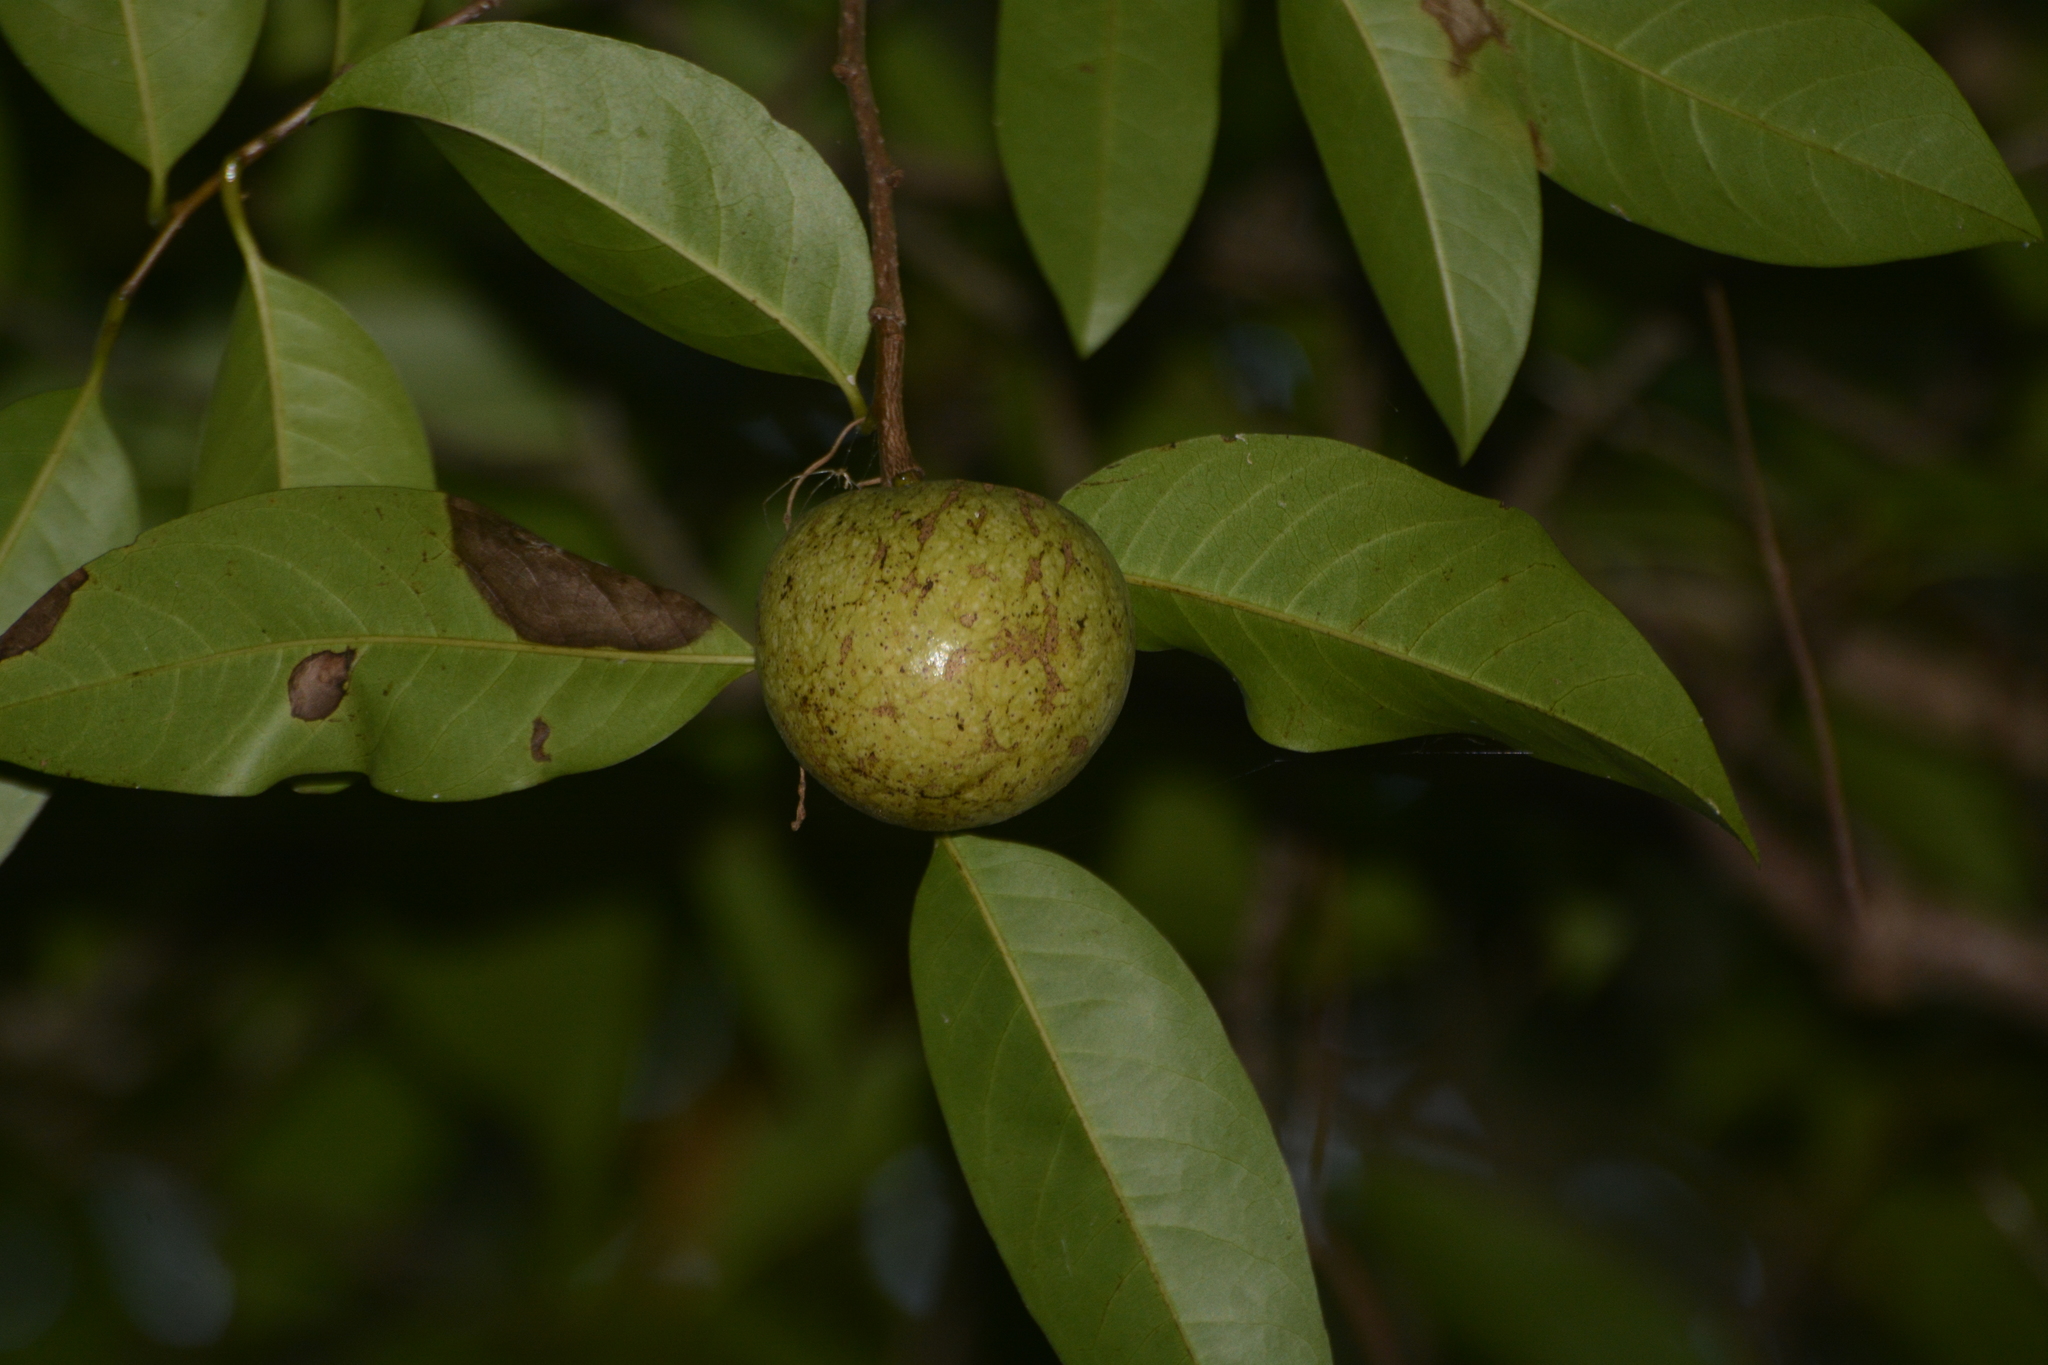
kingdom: Plantae
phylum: Tracheophyta
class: Magnoliopsida
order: Magnoliales
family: Annonaceae
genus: Annona
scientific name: Annona glabra
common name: Monkey apple
